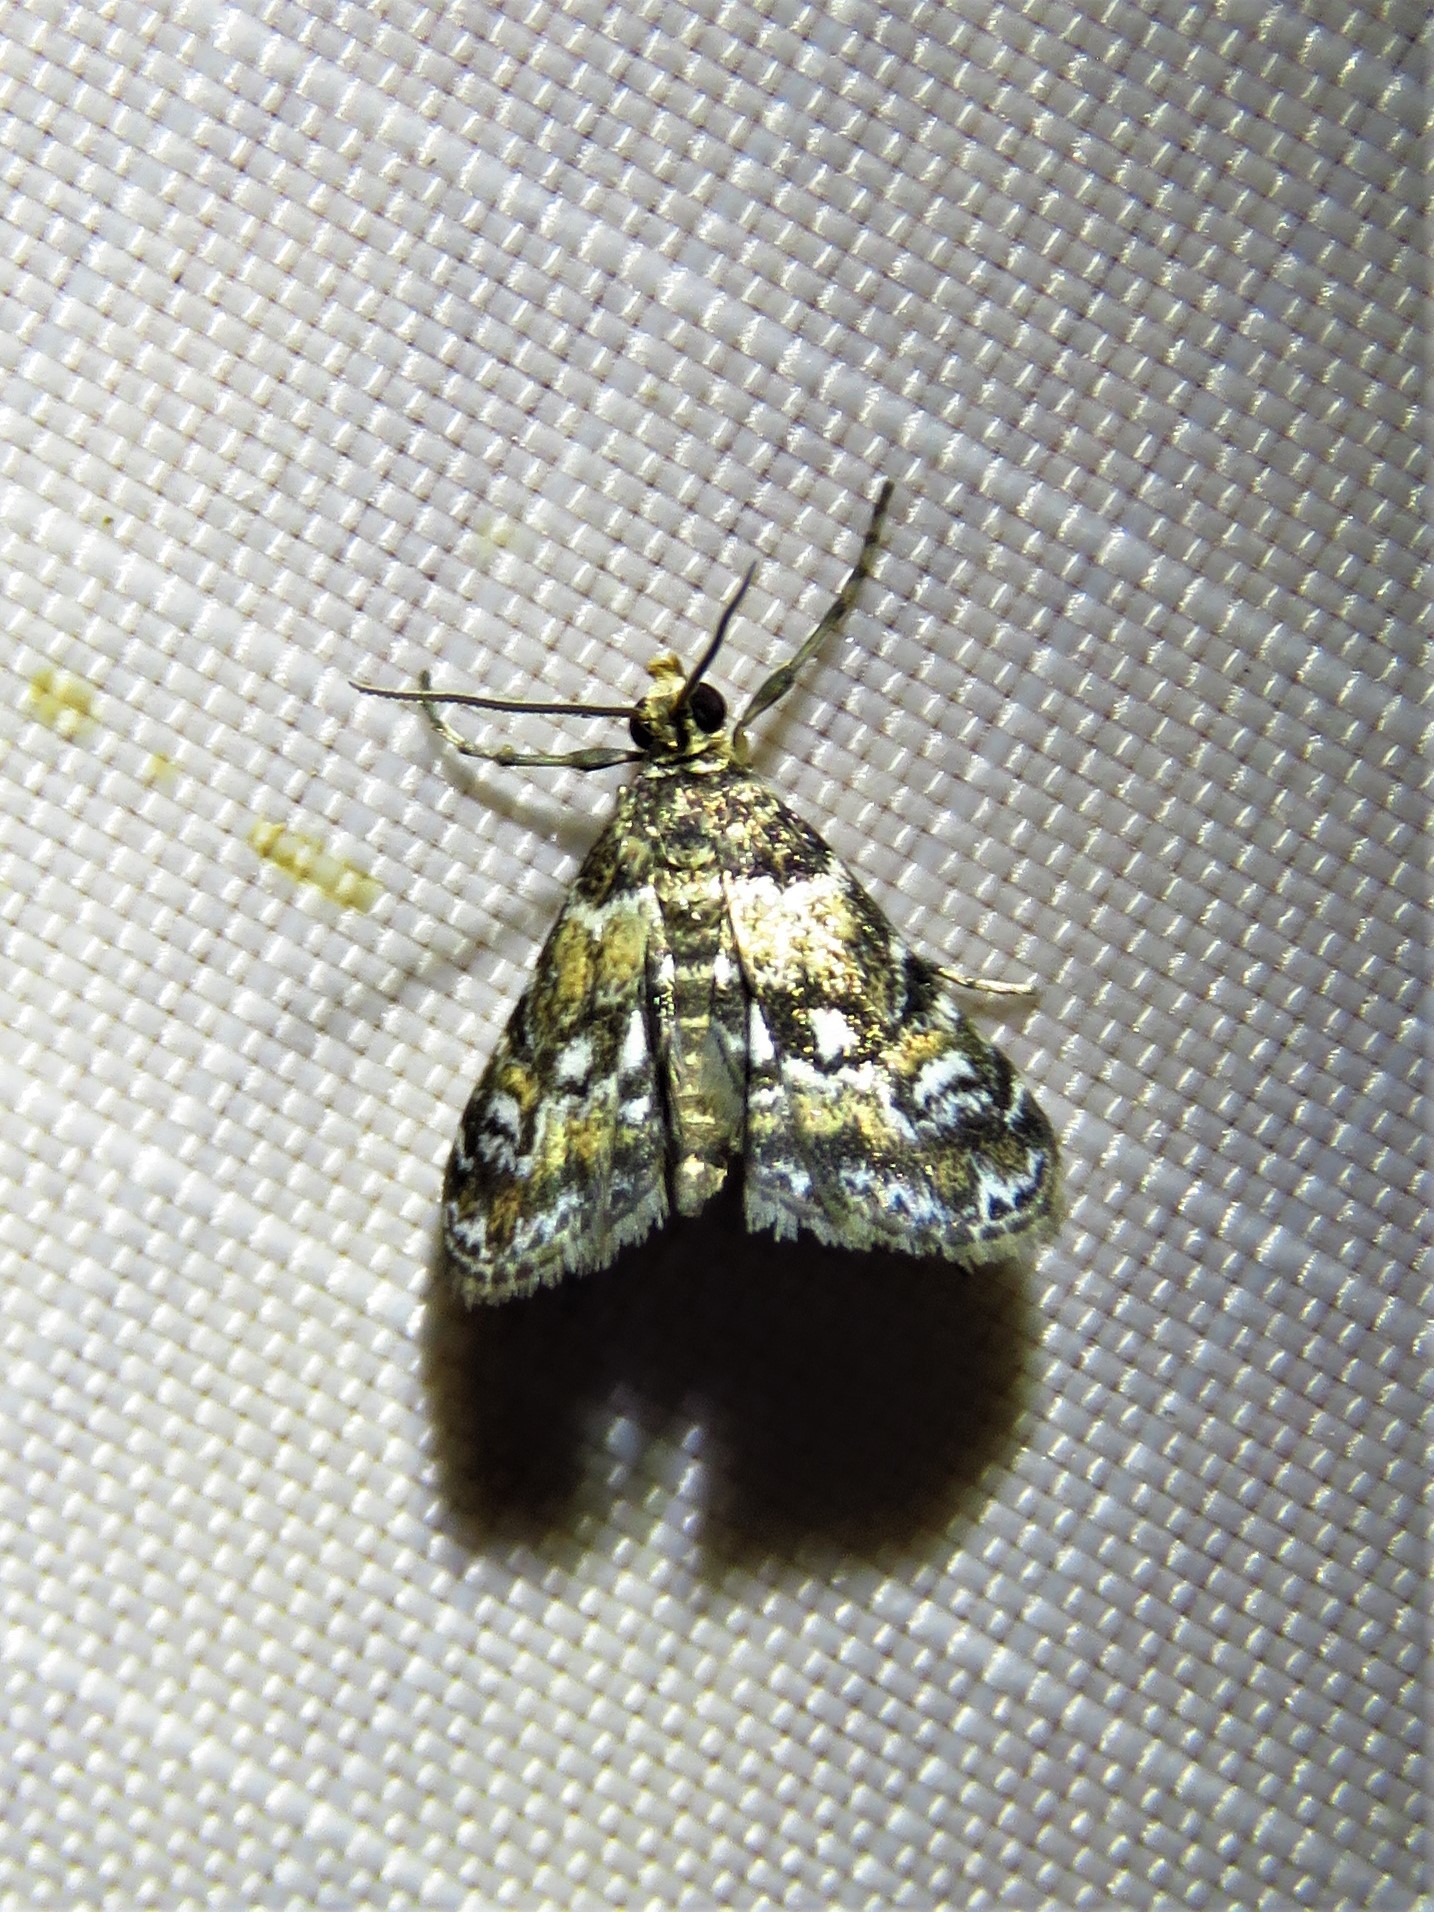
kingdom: Animalia
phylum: Arthropoda
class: Insecta
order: Lepidoptera
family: Crambidae
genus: Elophila
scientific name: Elophila obliteralis
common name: Waterlily leafcutter moth
